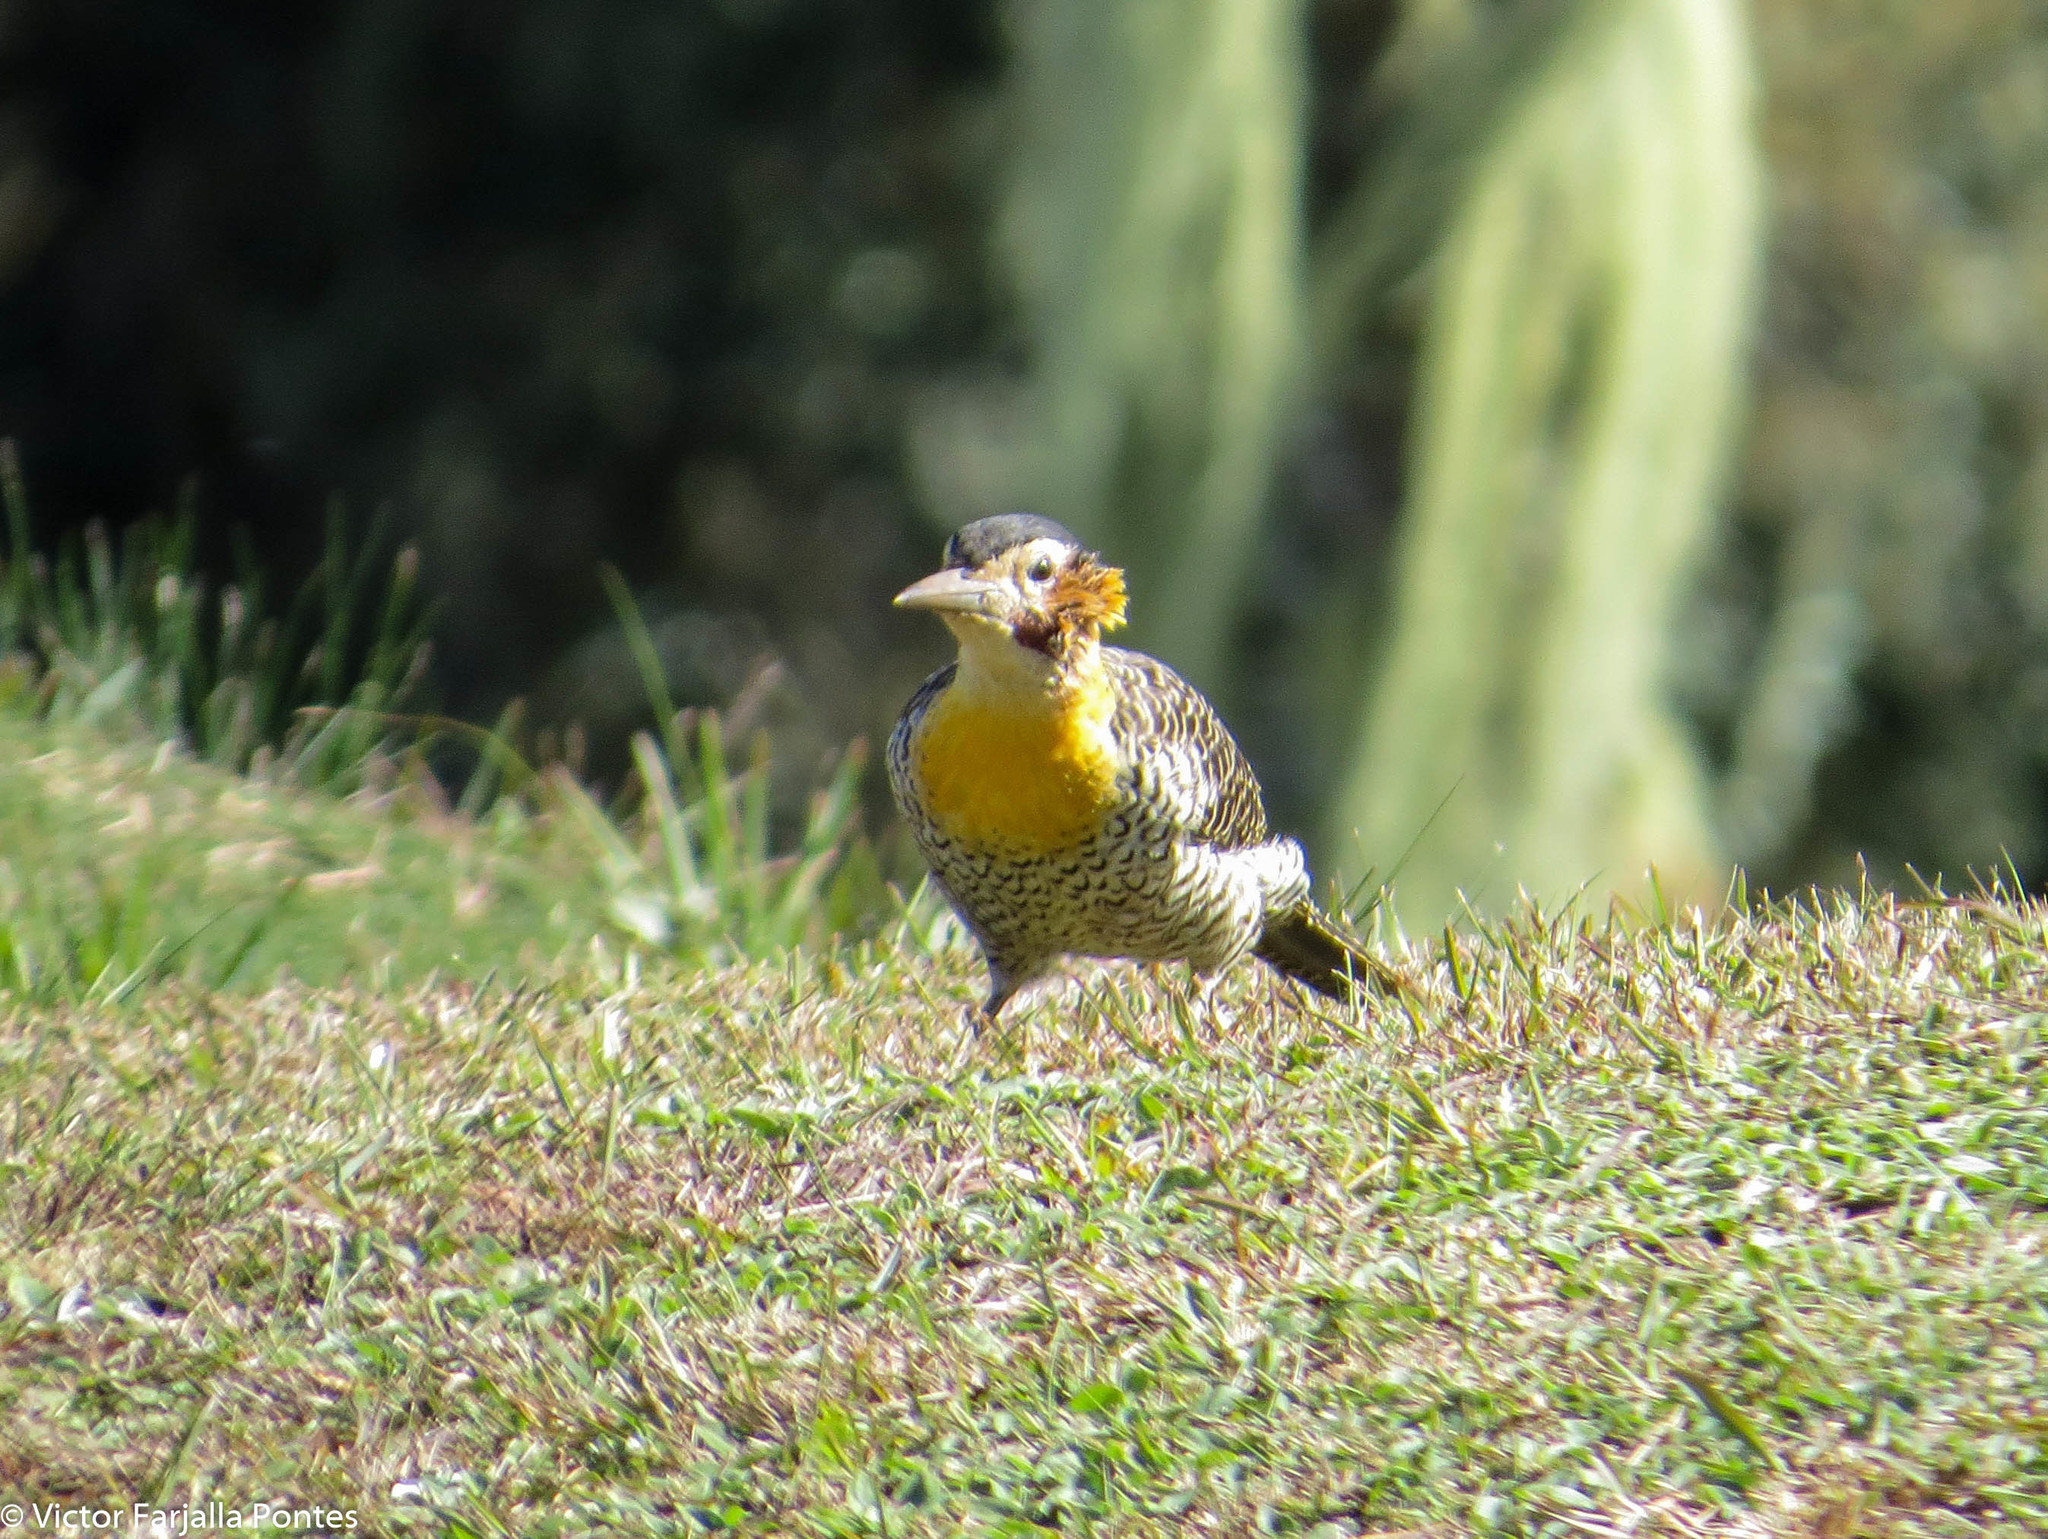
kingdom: Animalia
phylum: Chordata
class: Aves
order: Piciformes
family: Picidae
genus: Colaptes
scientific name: Colaptes campestris
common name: Campo flicker
